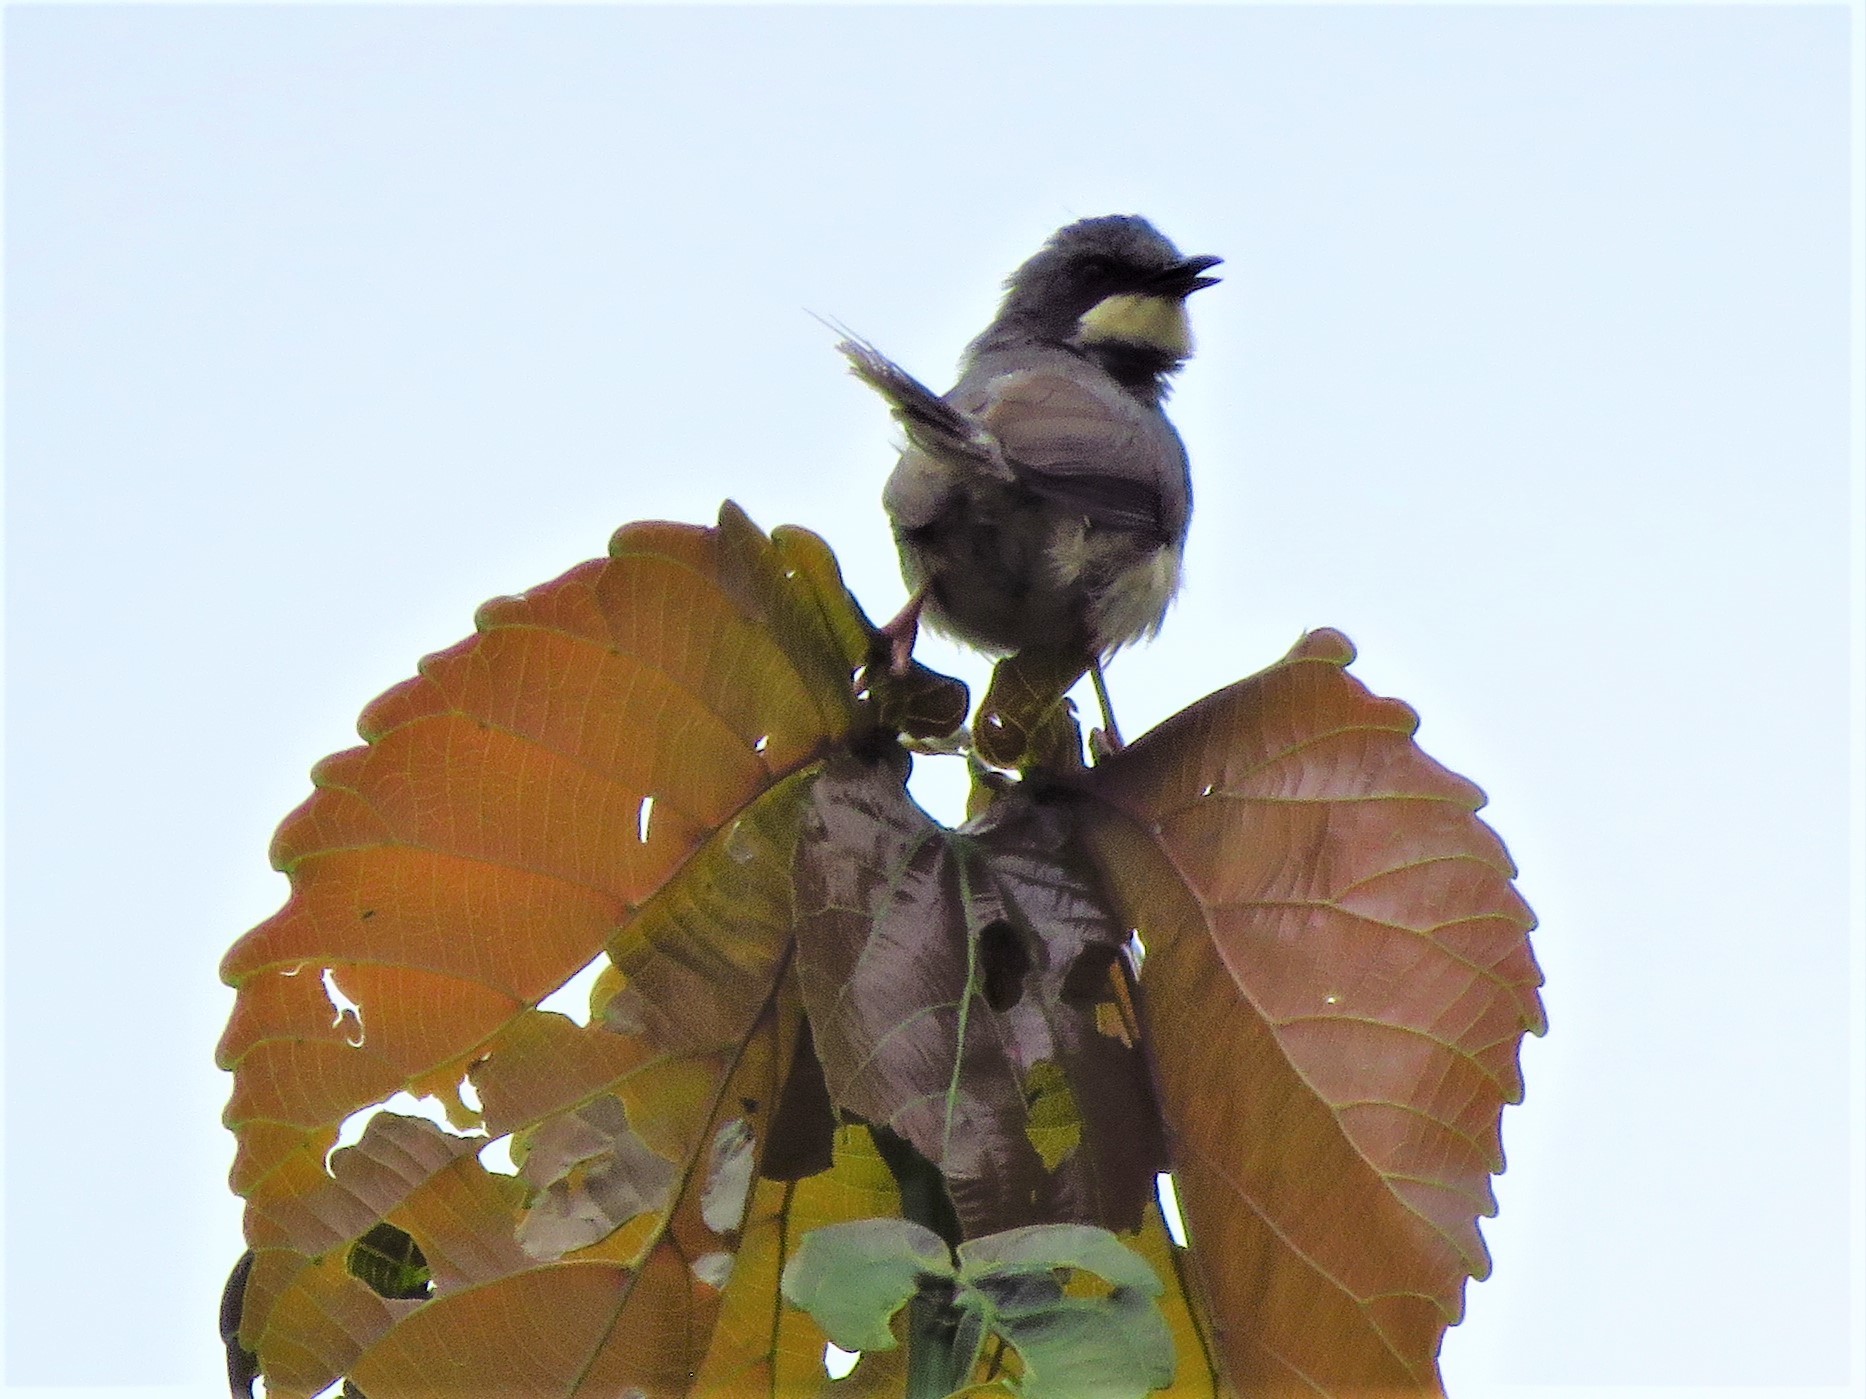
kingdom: Animalia
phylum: Chordata
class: Aves
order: Passeriformes
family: Cisticolidae
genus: Schistolais
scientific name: Schistolais leucopogon
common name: White-chinned prinia
